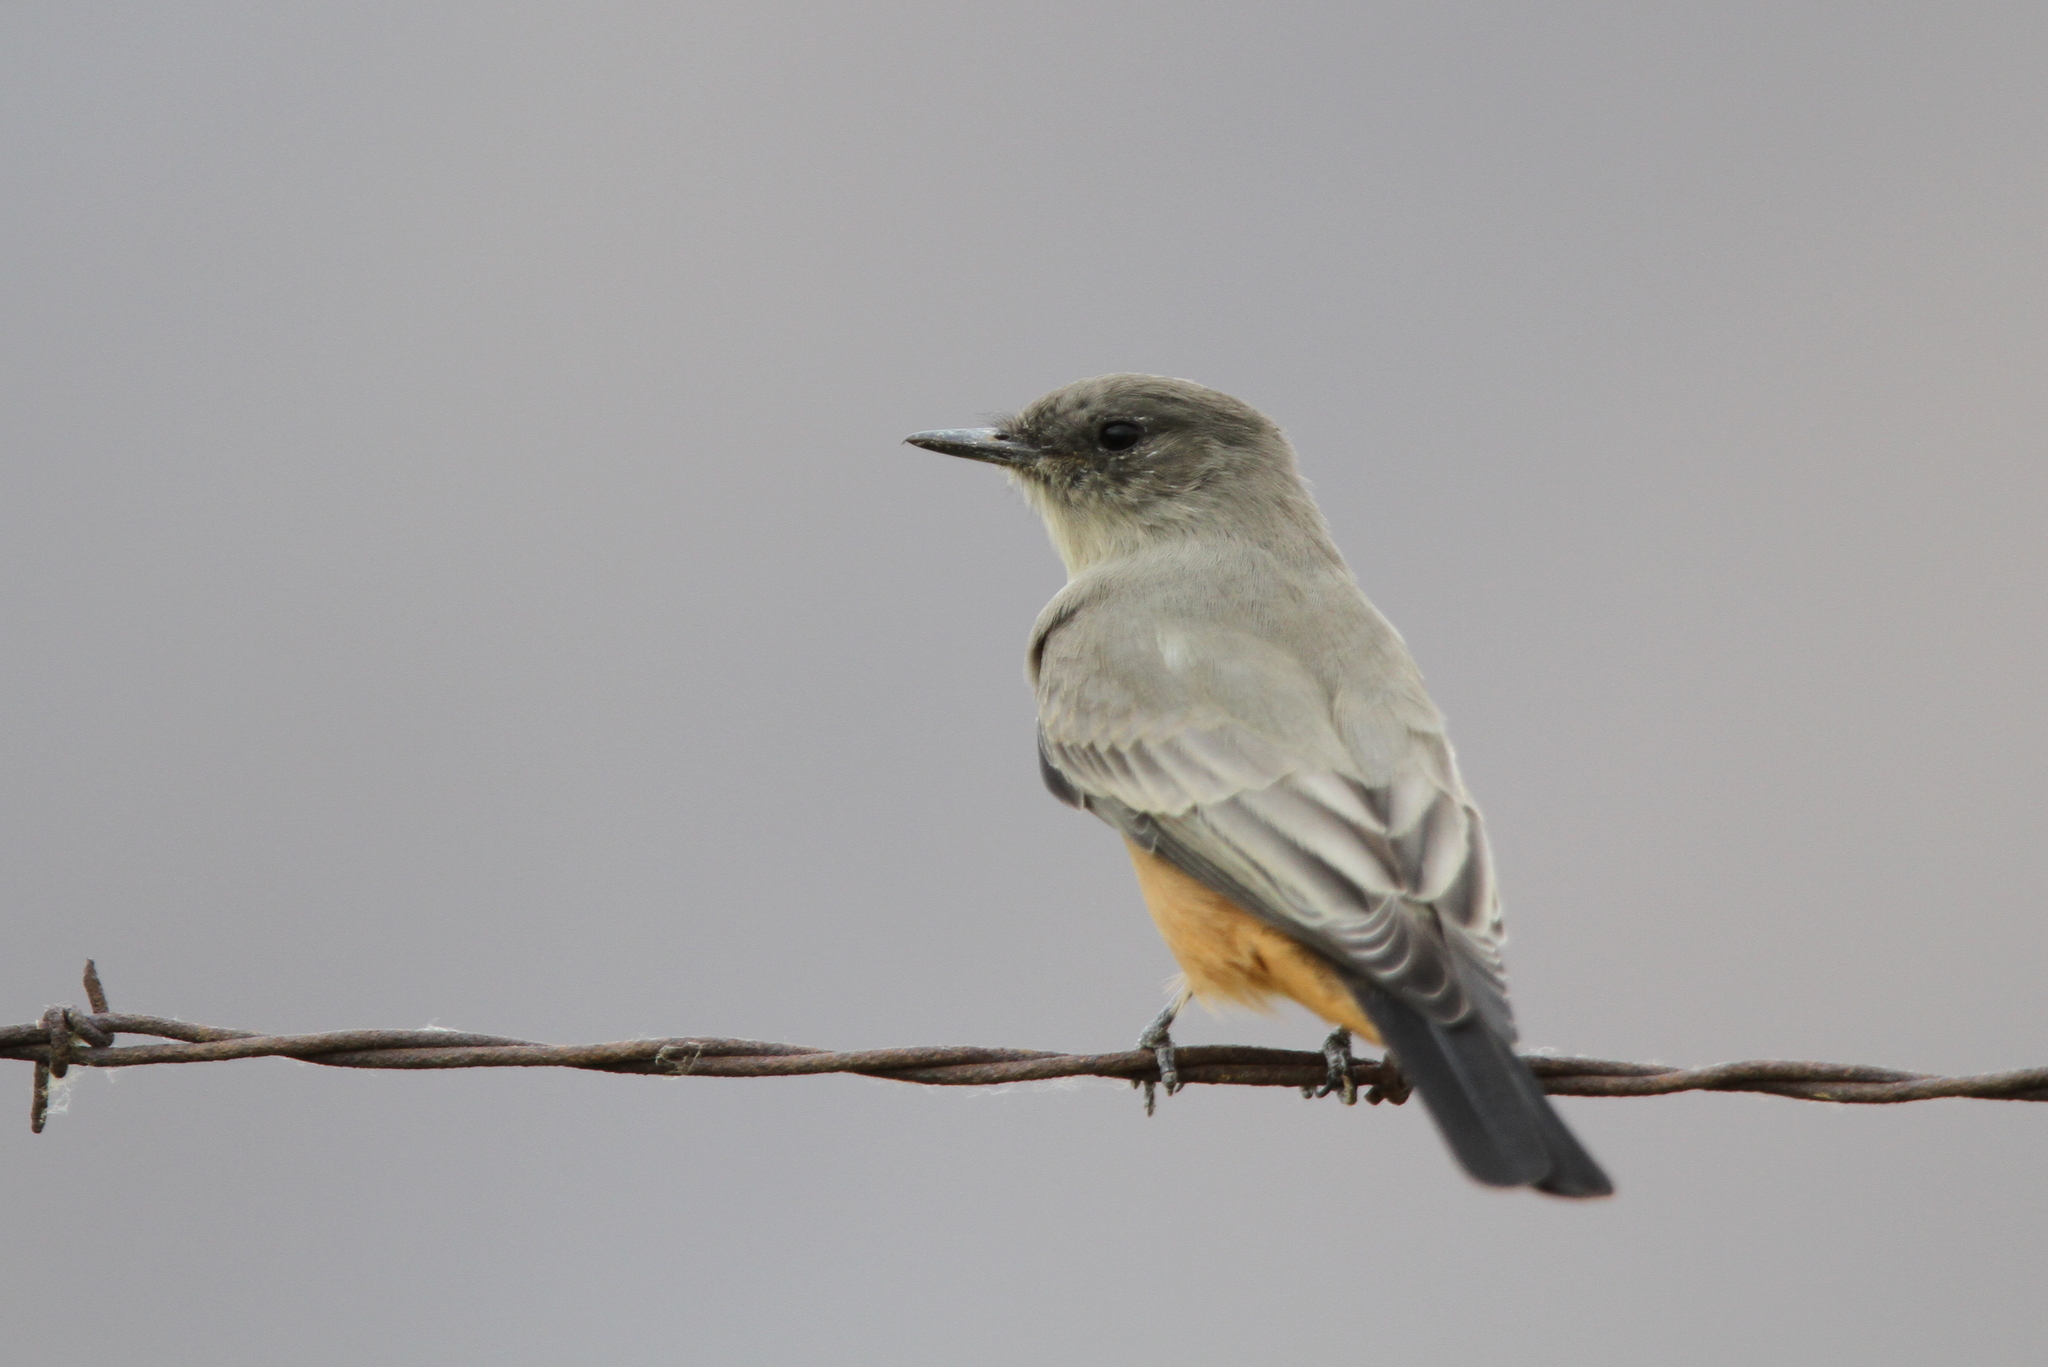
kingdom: Animalia
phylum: Chordata
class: Aves
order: Passeriformes
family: Tyrannidae
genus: Sayornis
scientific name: Sayornis saya
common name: Say's phoebe
